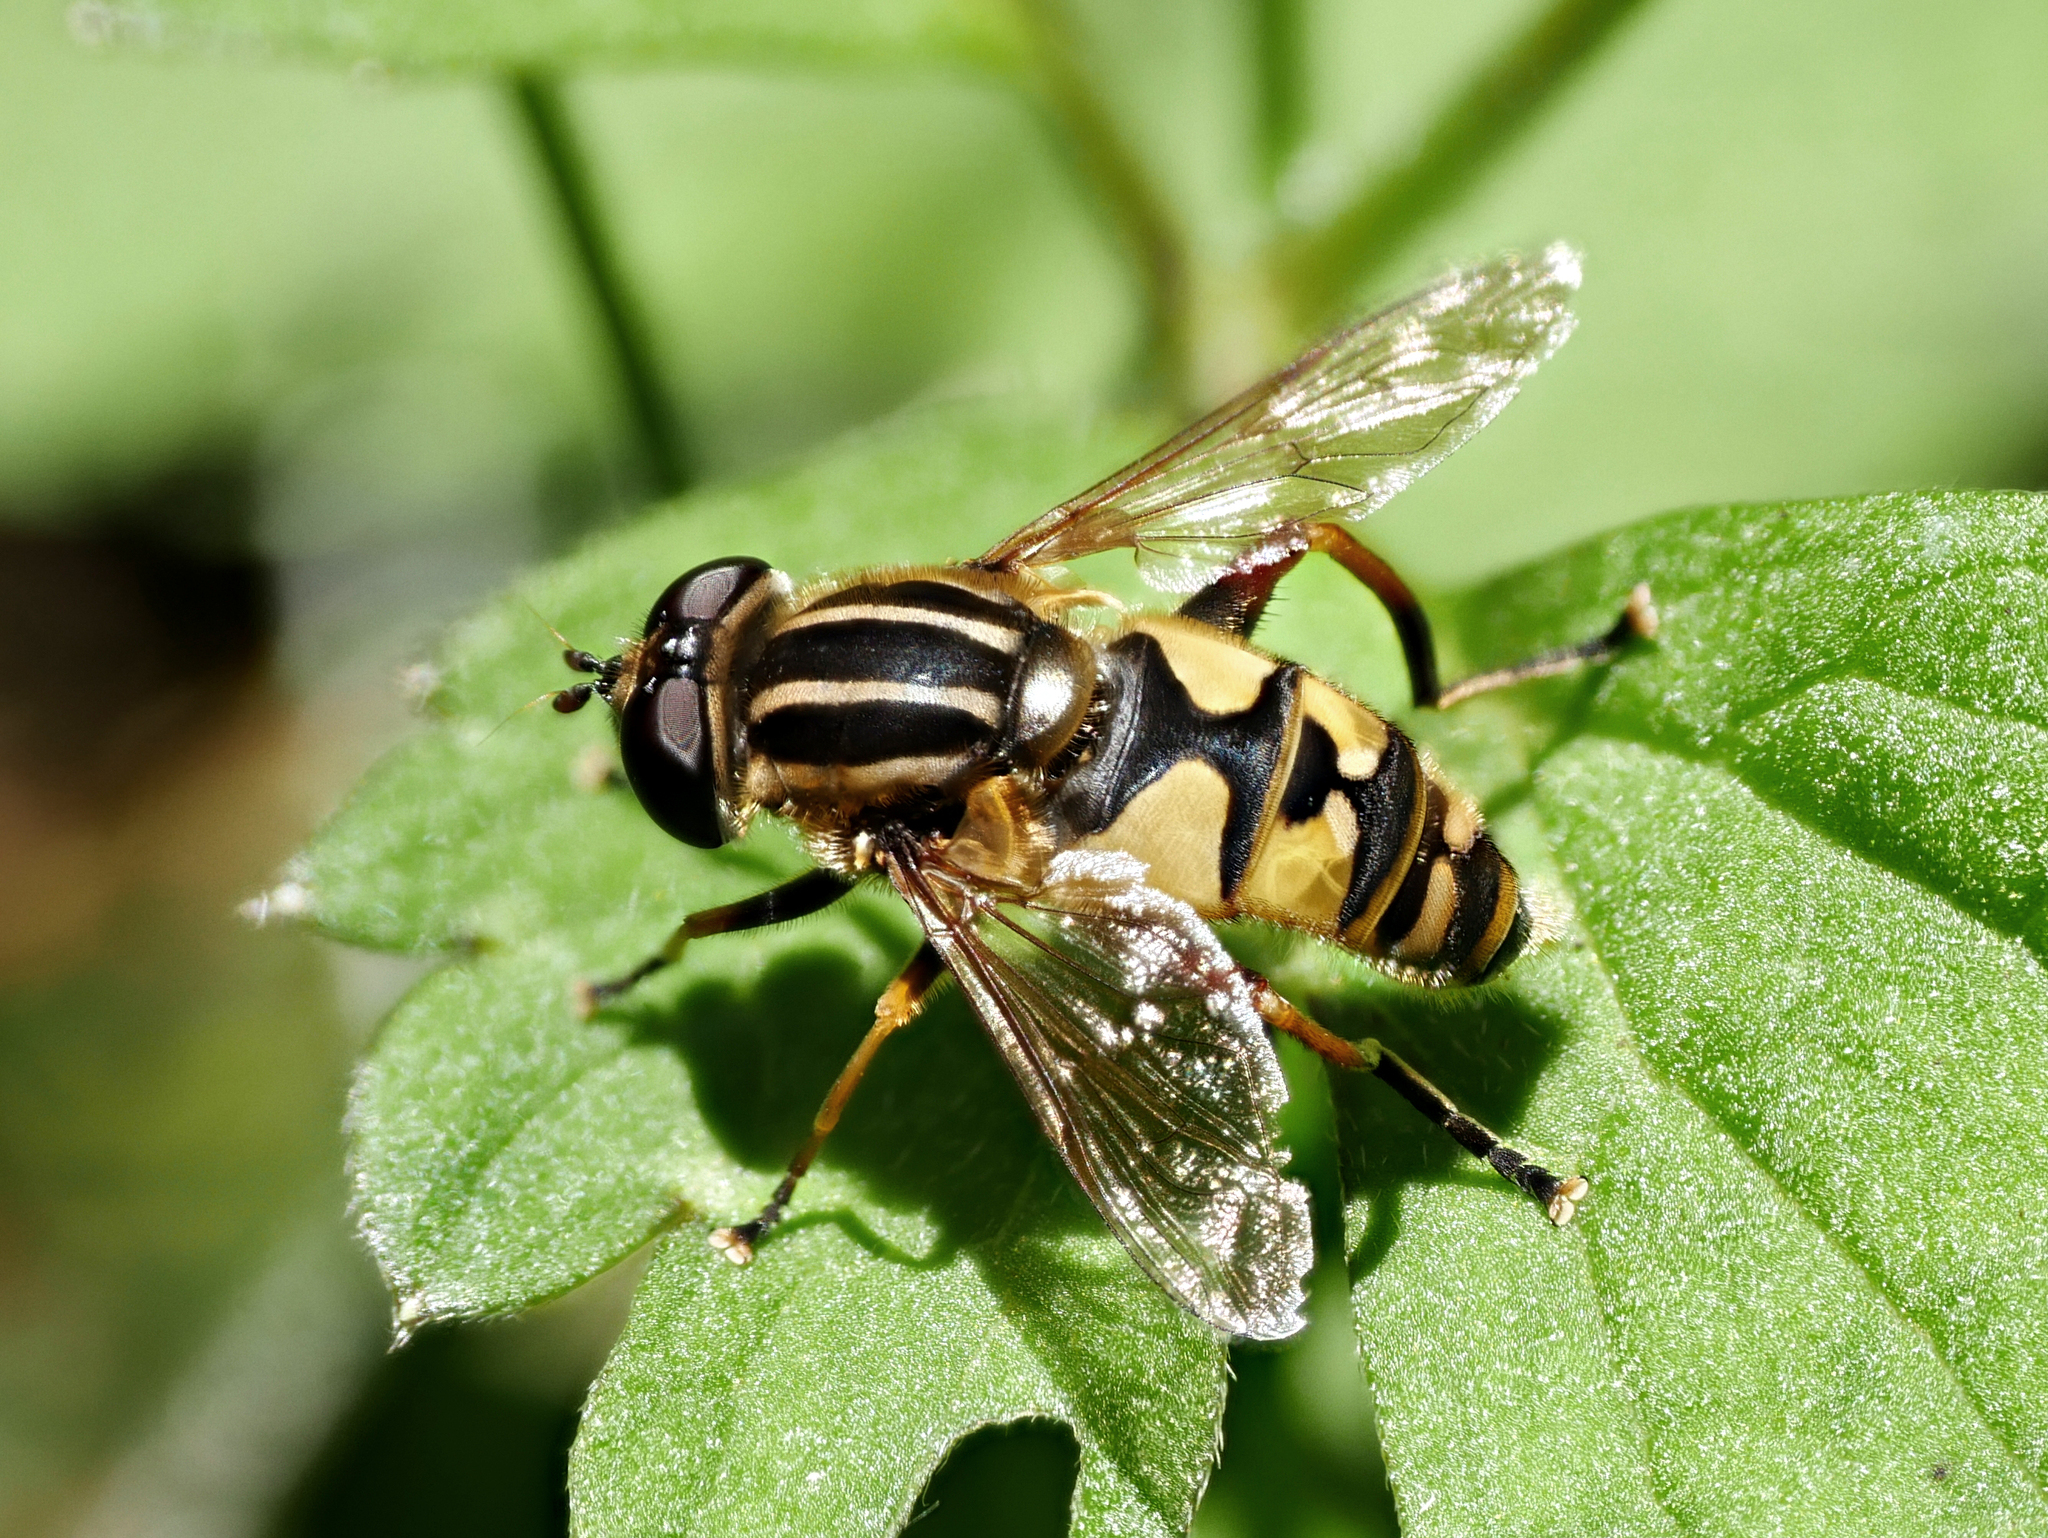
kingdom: Animalia
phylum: Arthropoda
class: Insecta
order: Diptera
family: Syrphidae
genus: Helophilus
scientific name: Helophilus pendulus
